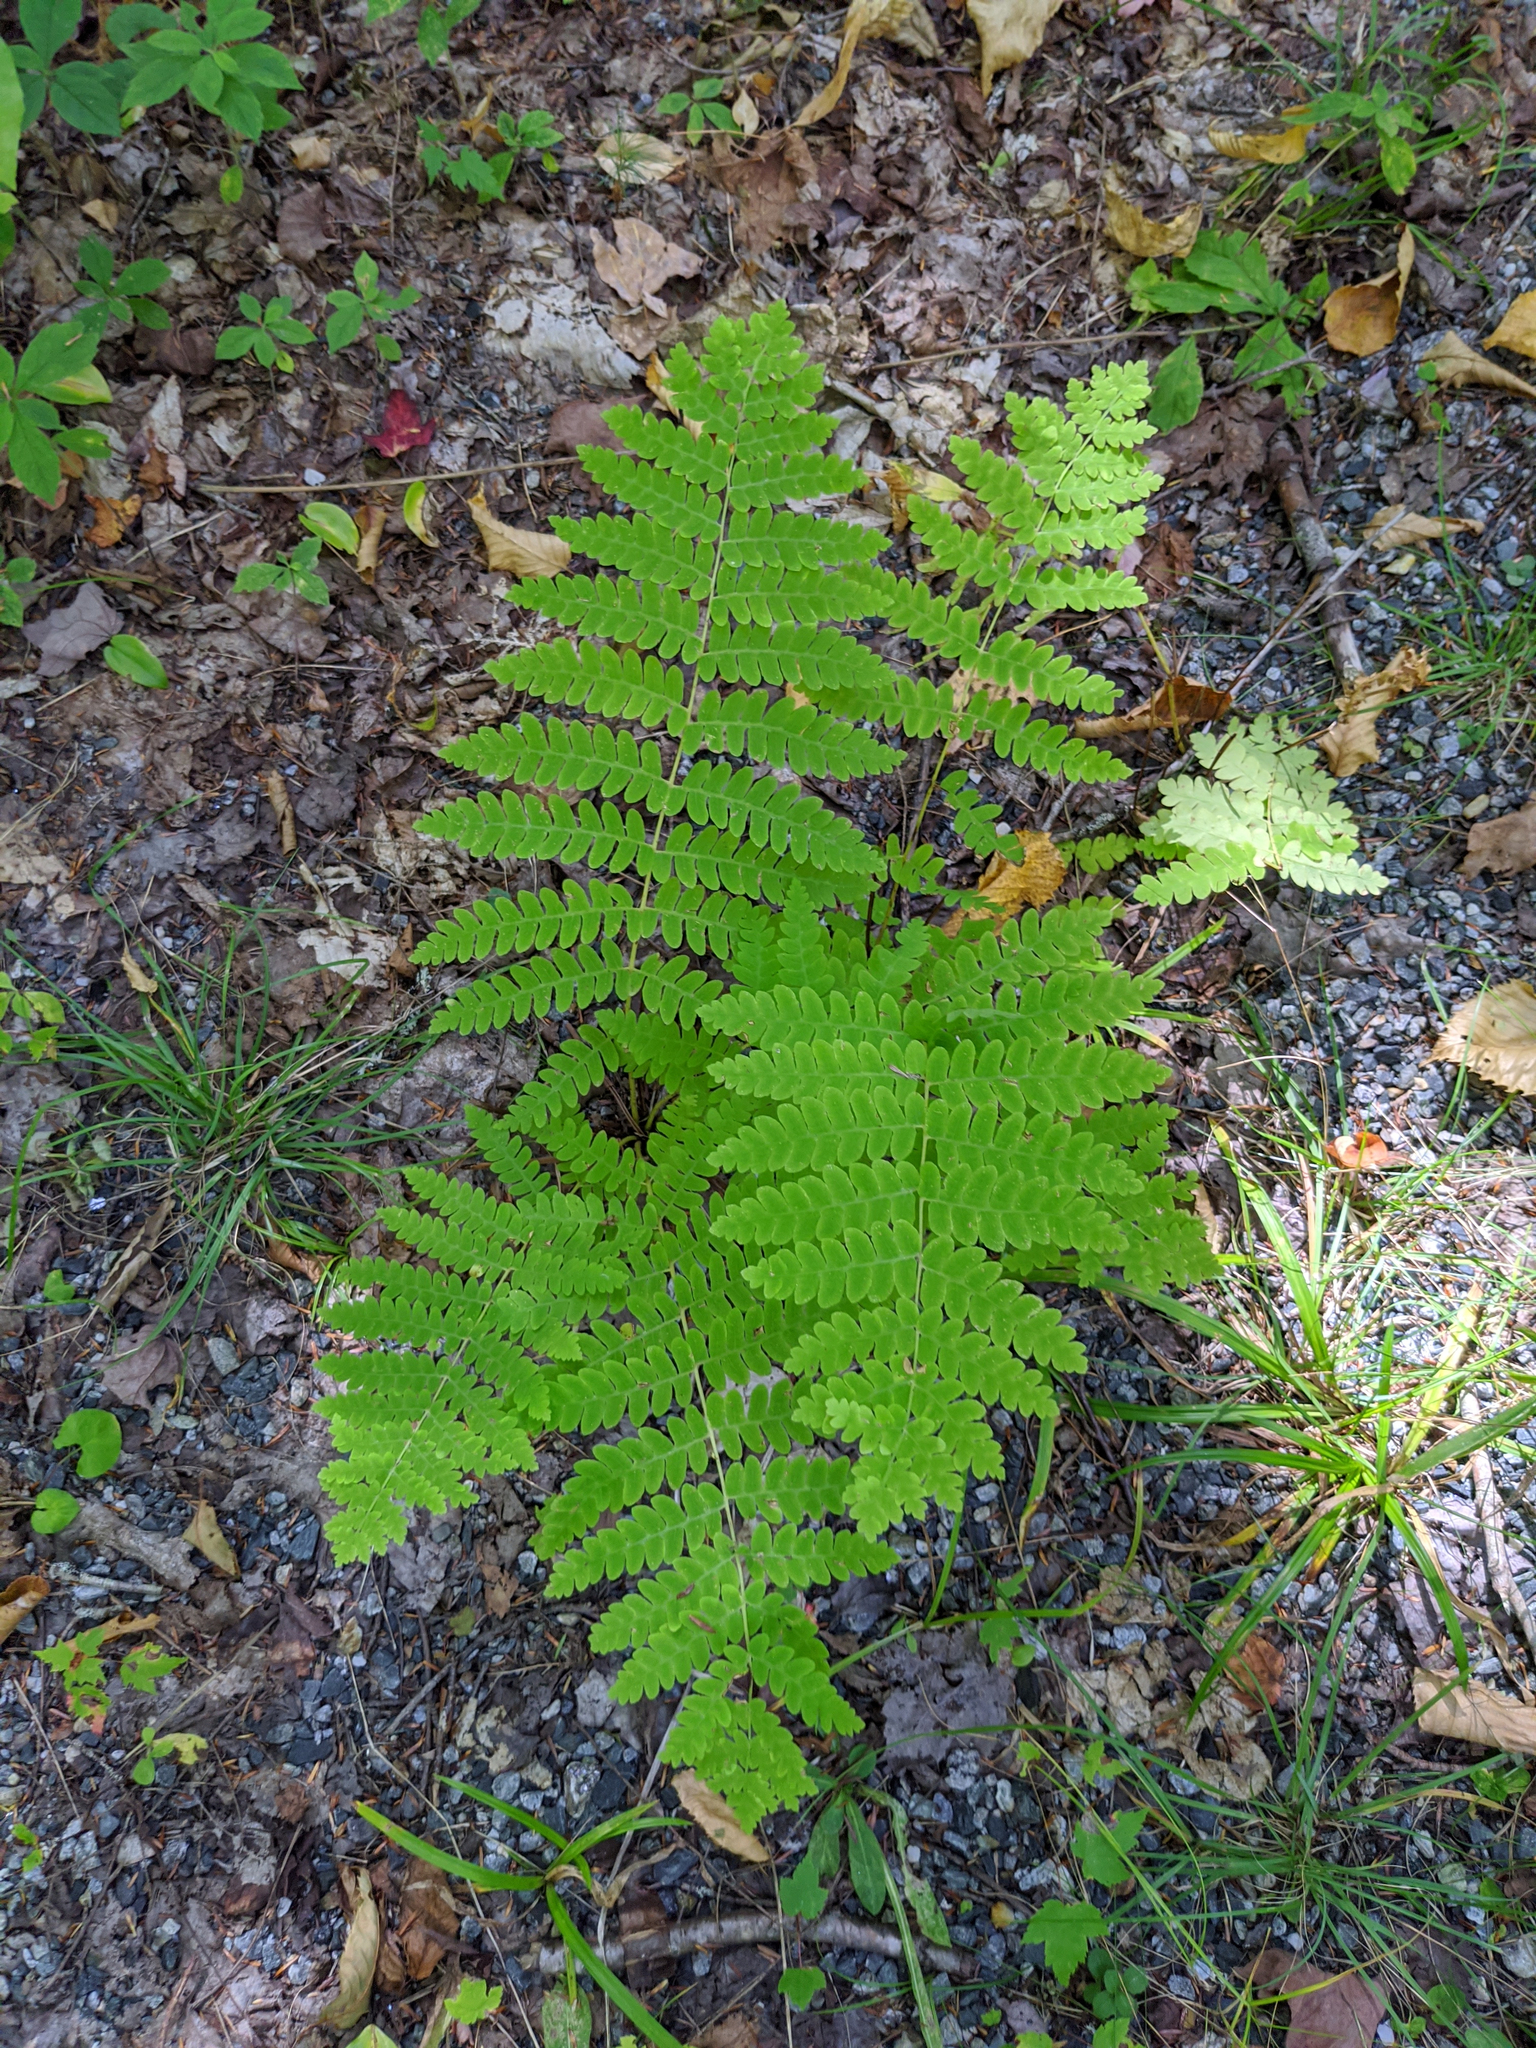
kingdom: Plantae
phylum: Tracheophyta
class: Polypodiopsida
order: Osmundales
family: Osmundaceae
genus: Claytosmunda
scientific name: Claytosmunda claytoniana
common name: Clayton's fern
